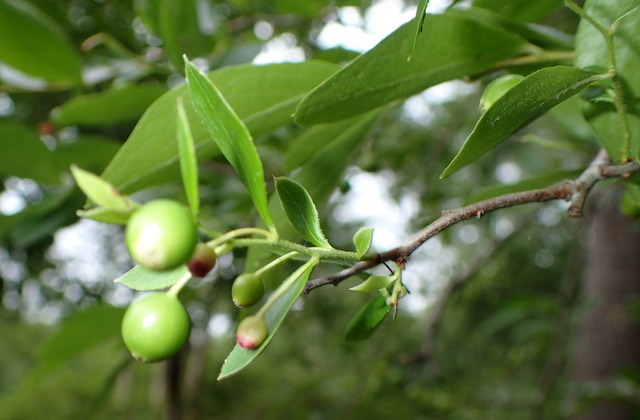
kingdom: Plantae
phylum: Tracheophyta
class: Magnoliopsida
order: Ericales
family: Ericaceae
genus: Vaccinium
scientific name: Vaccinium arboreum
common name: Farkleberry
